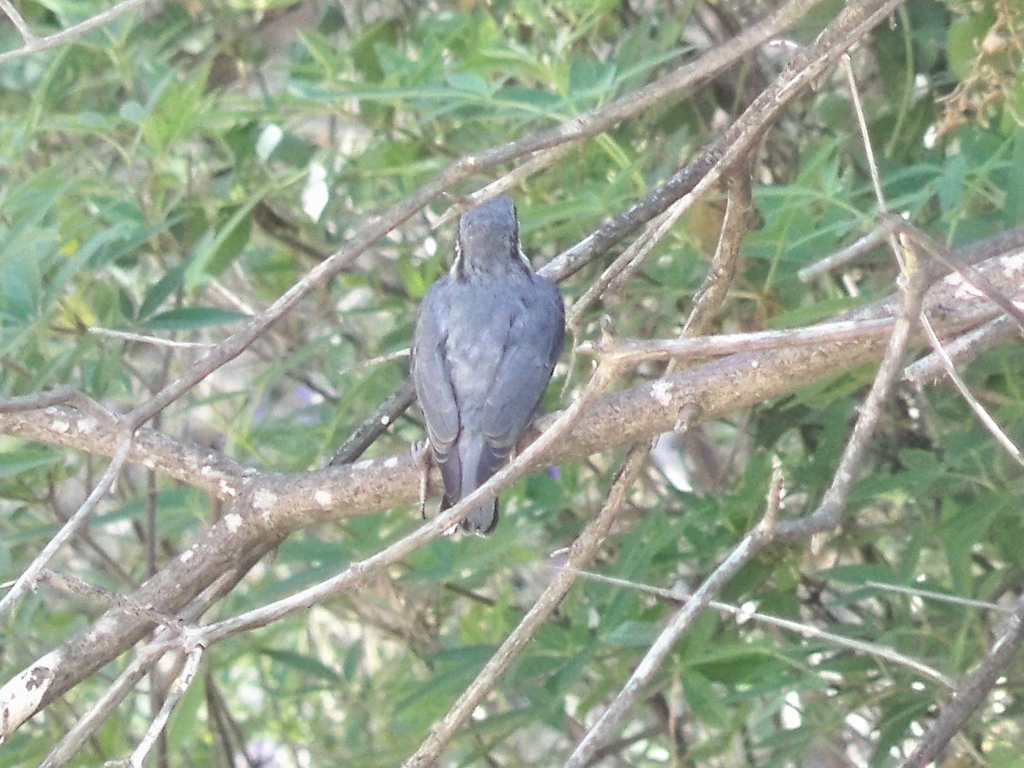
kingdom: Animalia
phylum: Chordata
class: Aves
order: Passeriformes
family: Sittidae
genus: Sitta
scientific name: Sitta europaea
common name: Eurasian nuthatch
